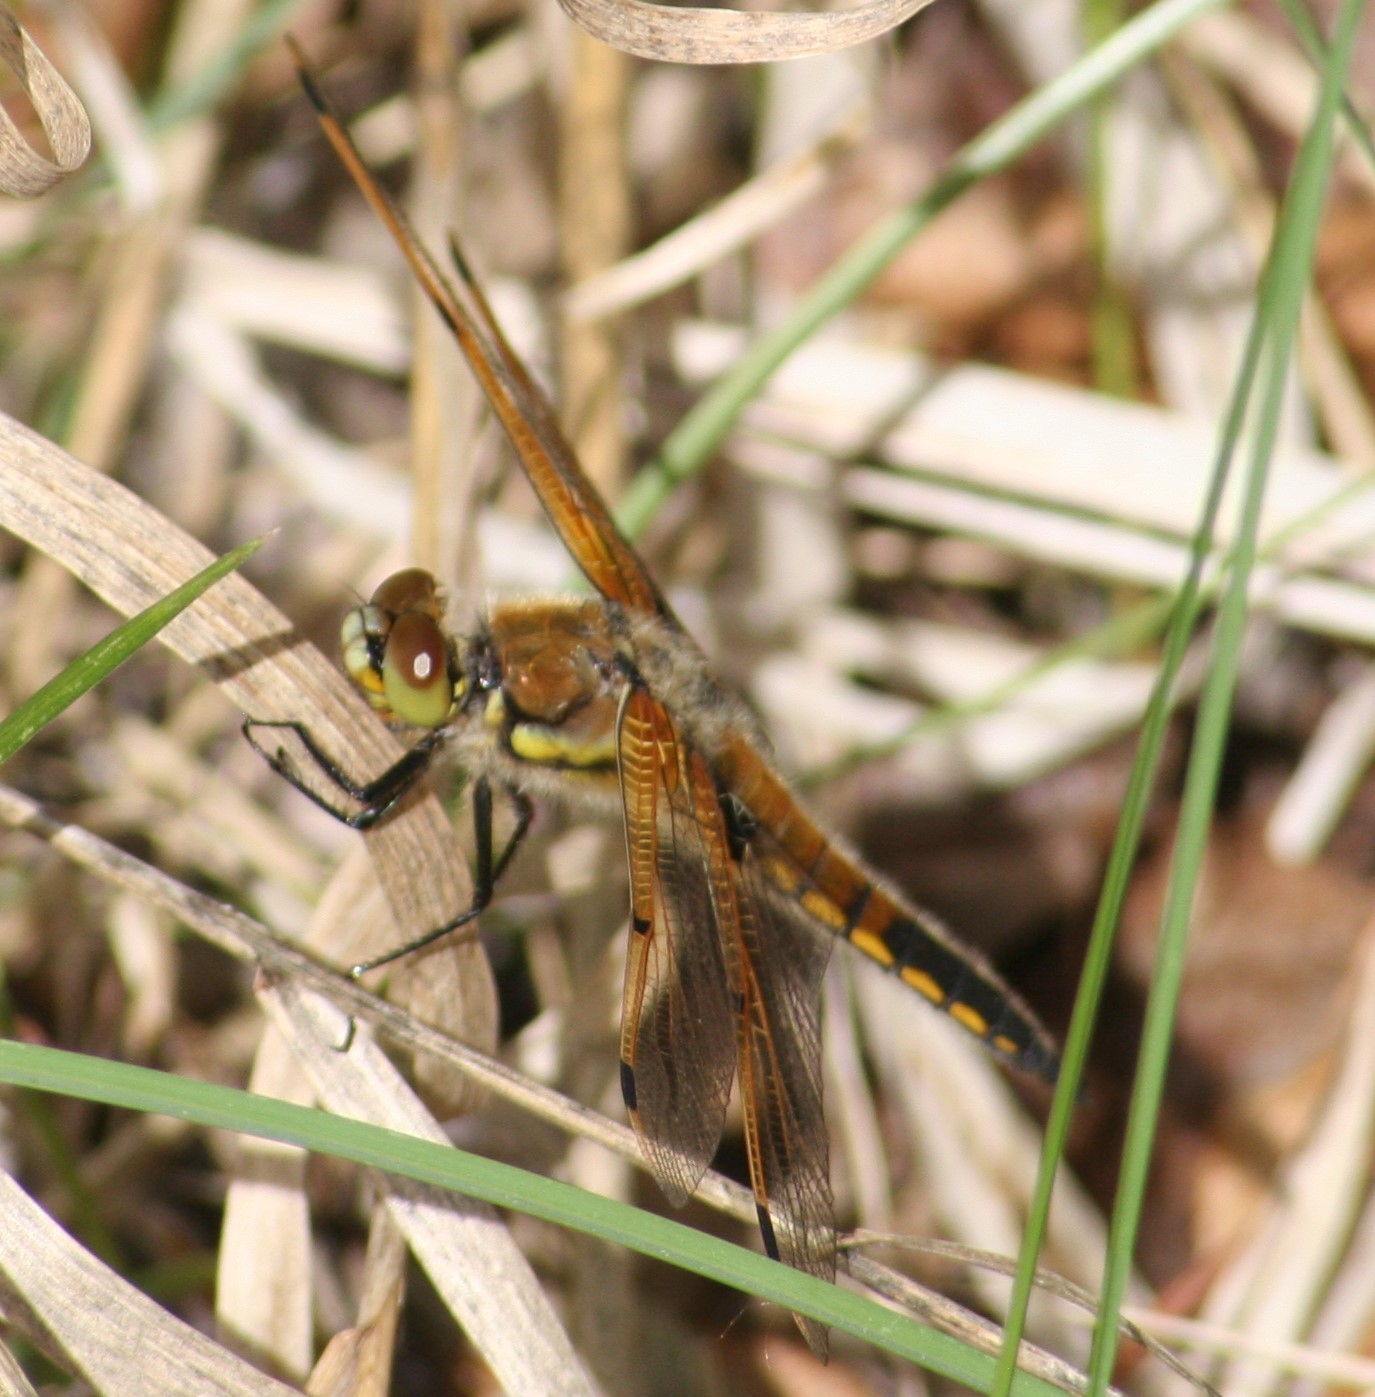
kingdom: Animalia
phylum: Arthropoda
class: Insecta
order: Odonata
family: Libellulidae
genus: Libellula
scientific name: Libellula quadrimaculata
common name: Four-spotted chaser
